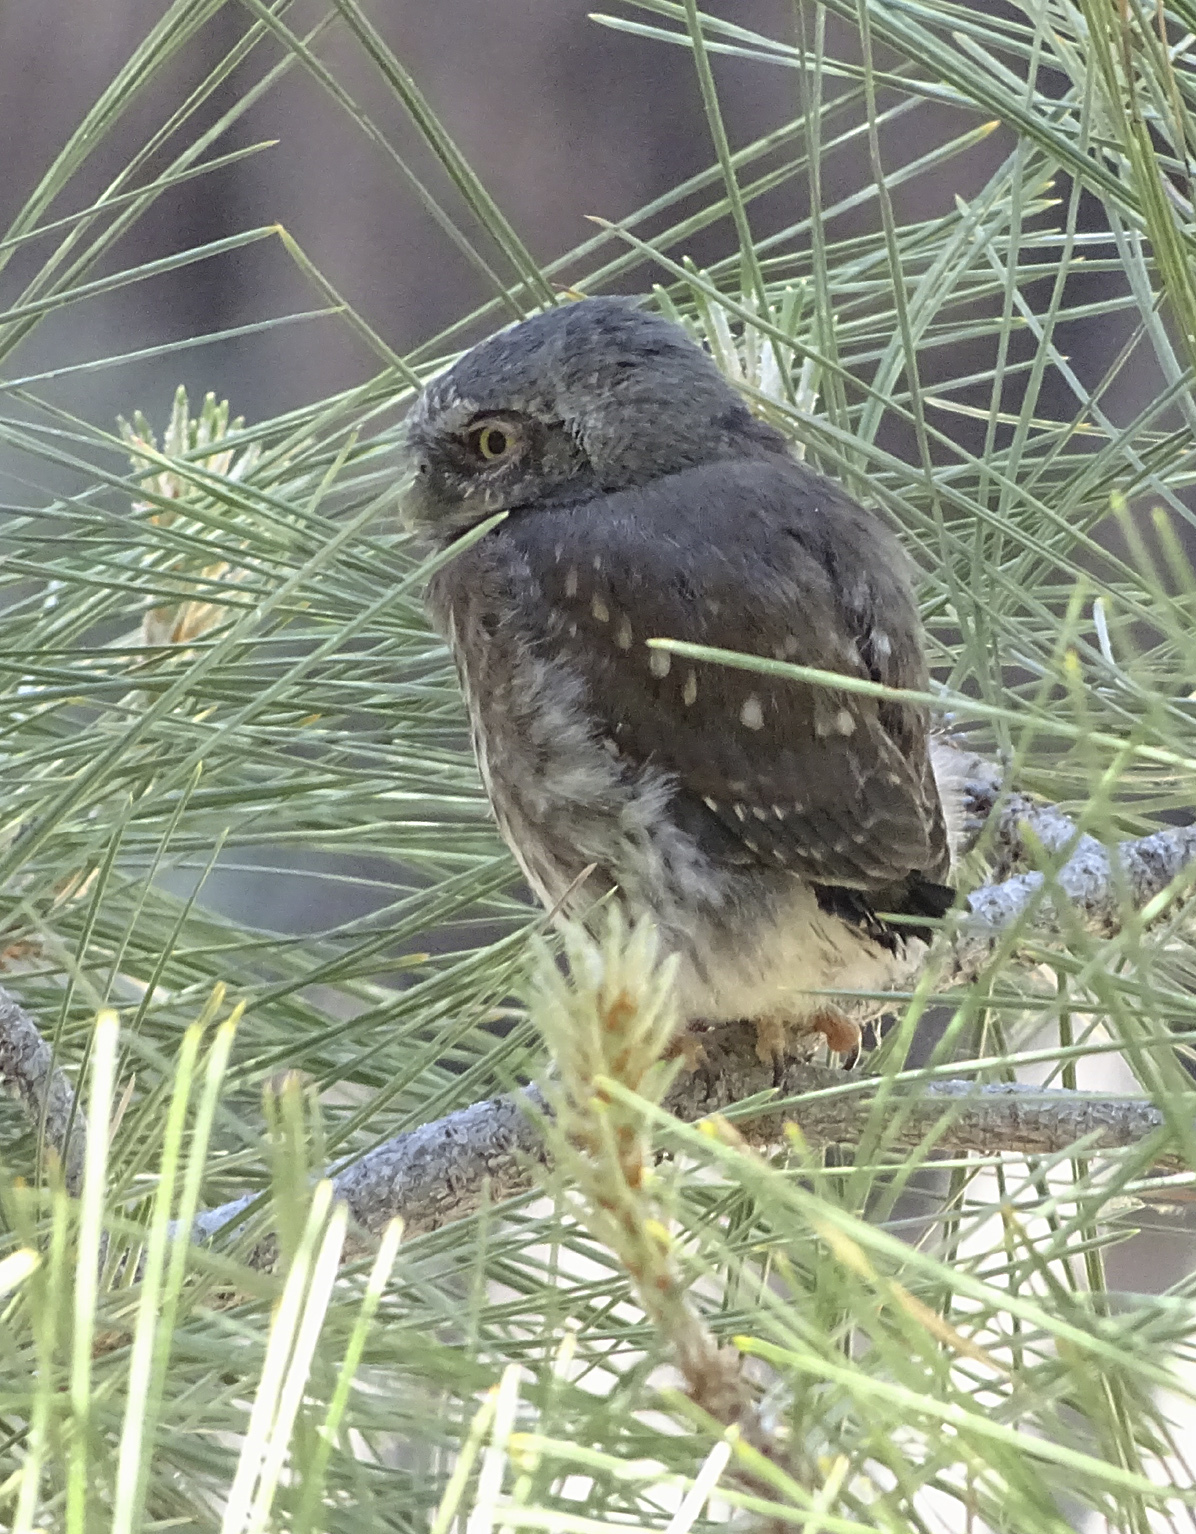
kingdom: Animalia
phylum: Chordata
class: Aves
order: Strigiformes
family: Strigidae
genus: Glaucidium
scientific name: Glaucidium gnoma
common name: Northern pygmy-owl
